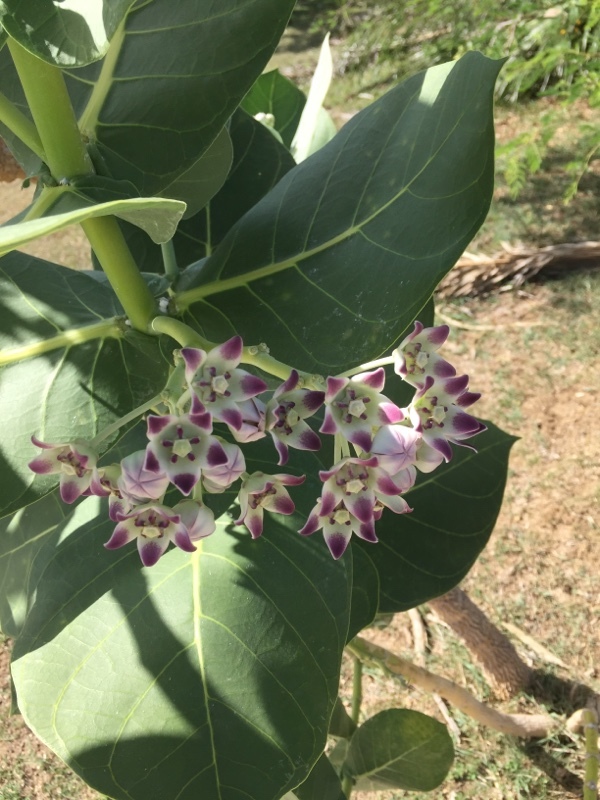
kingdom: Plantae
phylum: Tracheophyta
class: Magnoliopsida
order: Gentianales
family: Apocynaceae
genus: Calotropis
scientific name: Calotropis procera
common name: Roostertree
